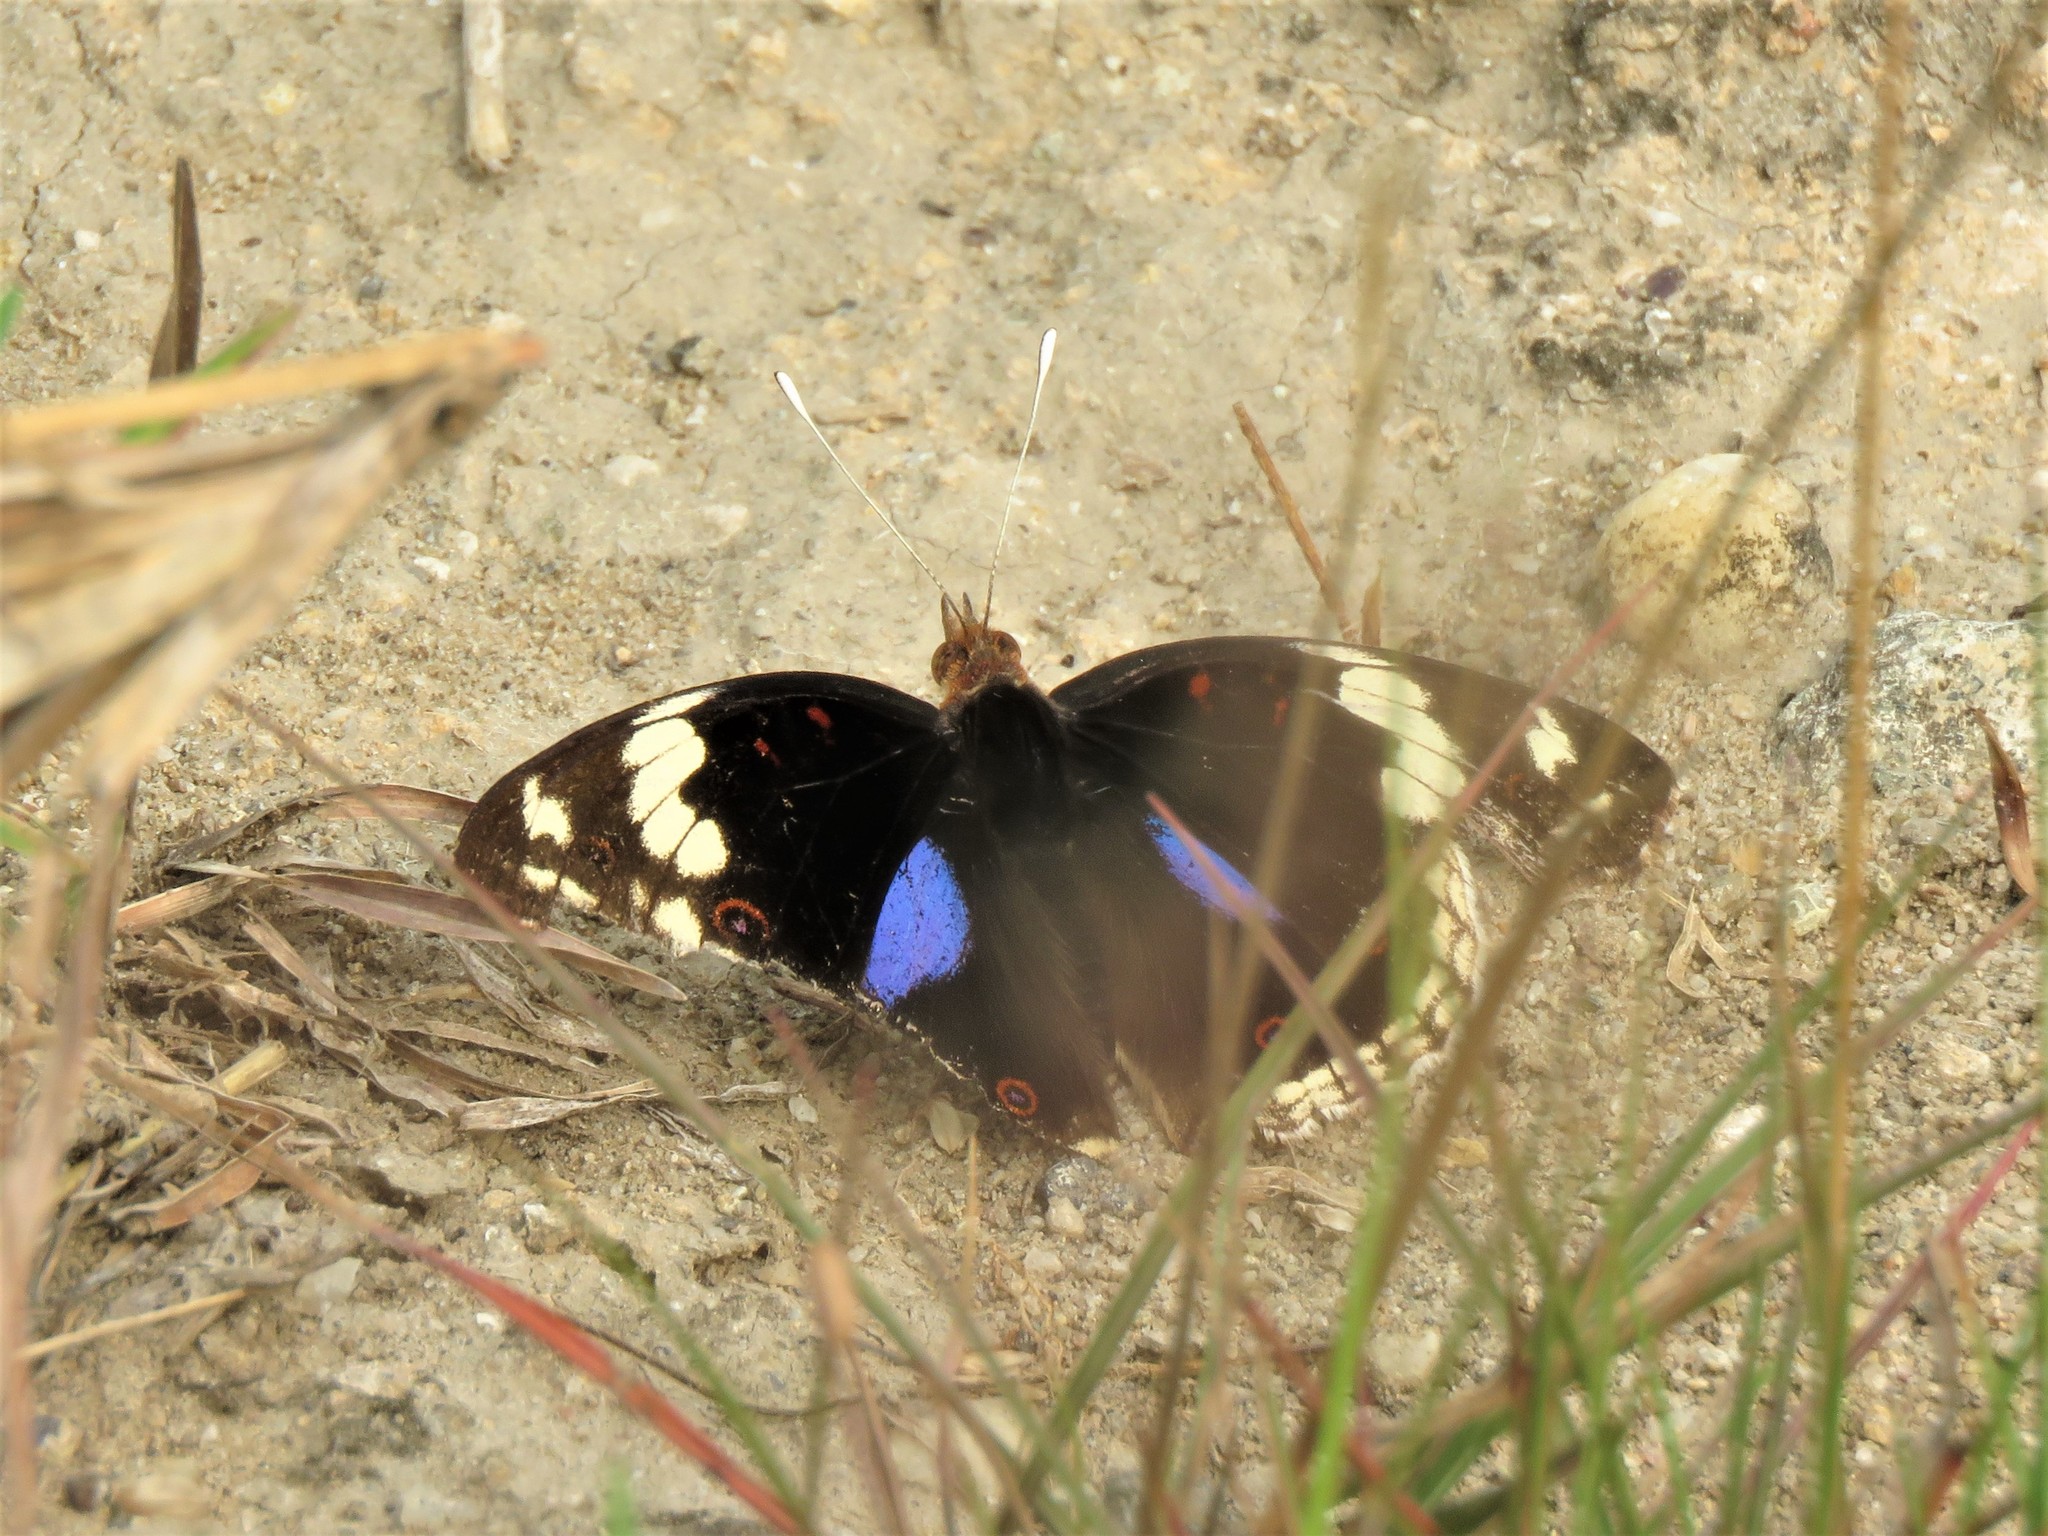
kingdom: Animalia
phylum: Arthropoda
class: Insecta
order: Lepidoptera
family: Nymphalidae
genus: Junonia
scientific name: Junonia oenone
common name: Dark blue pansy
